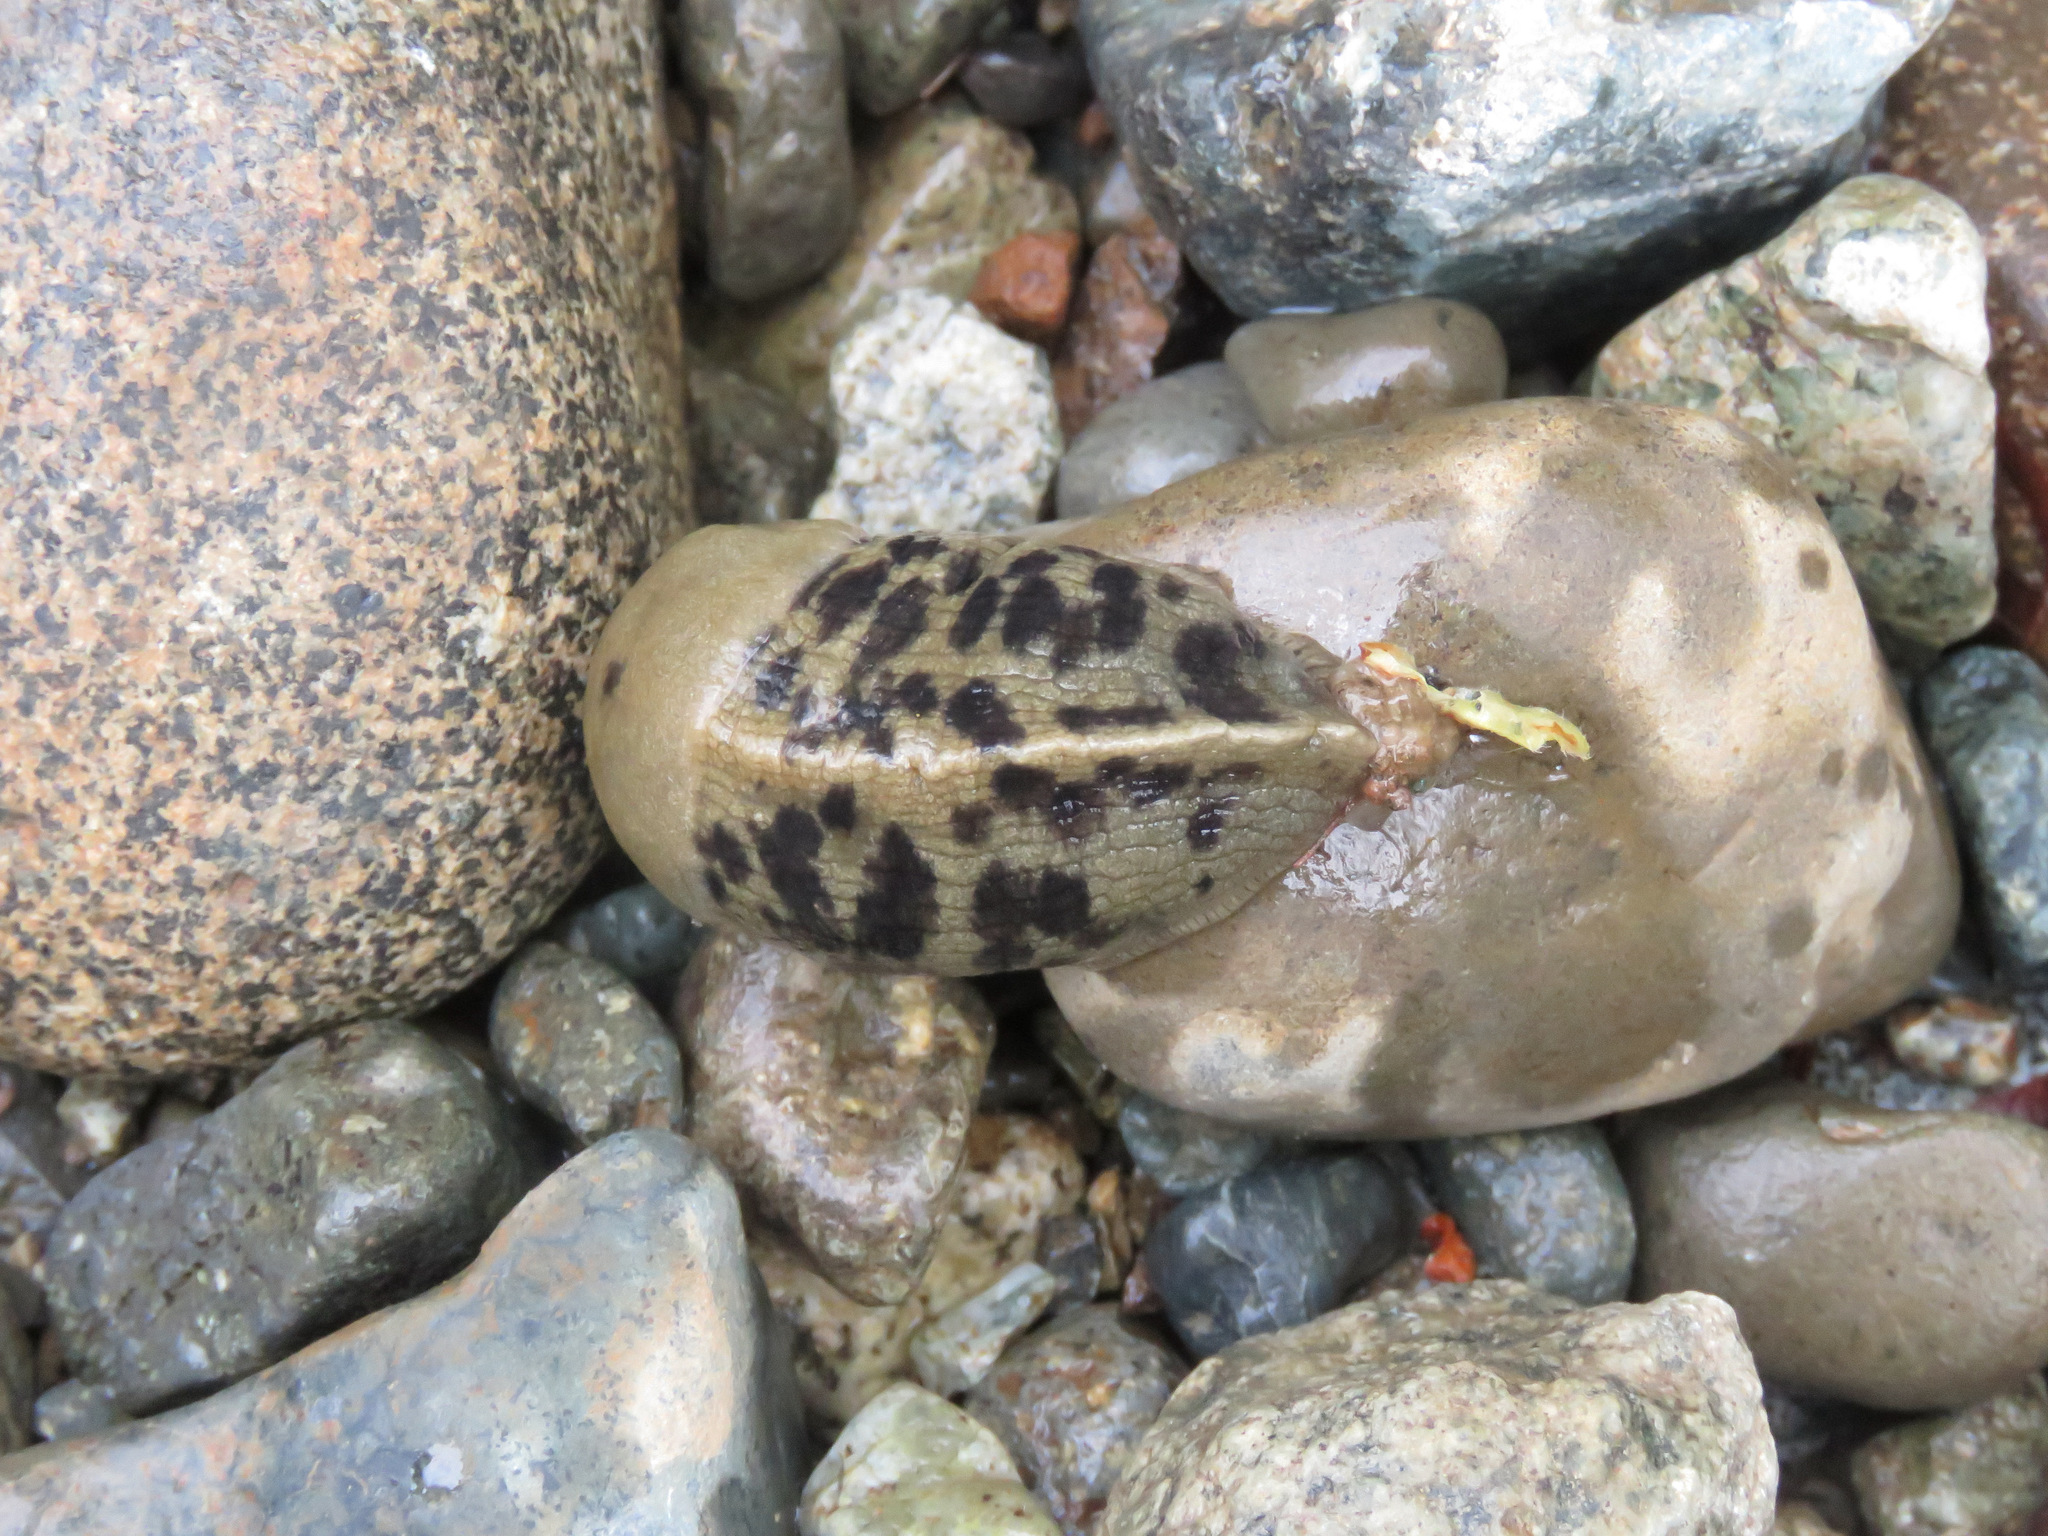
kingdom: Animalia
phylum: Mollusca
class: Gastropoda
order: Stylommatophora
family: Ariolimacidae
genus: Ariolimax
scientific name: Ariolimax columbianus
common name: Pacific banana slug
